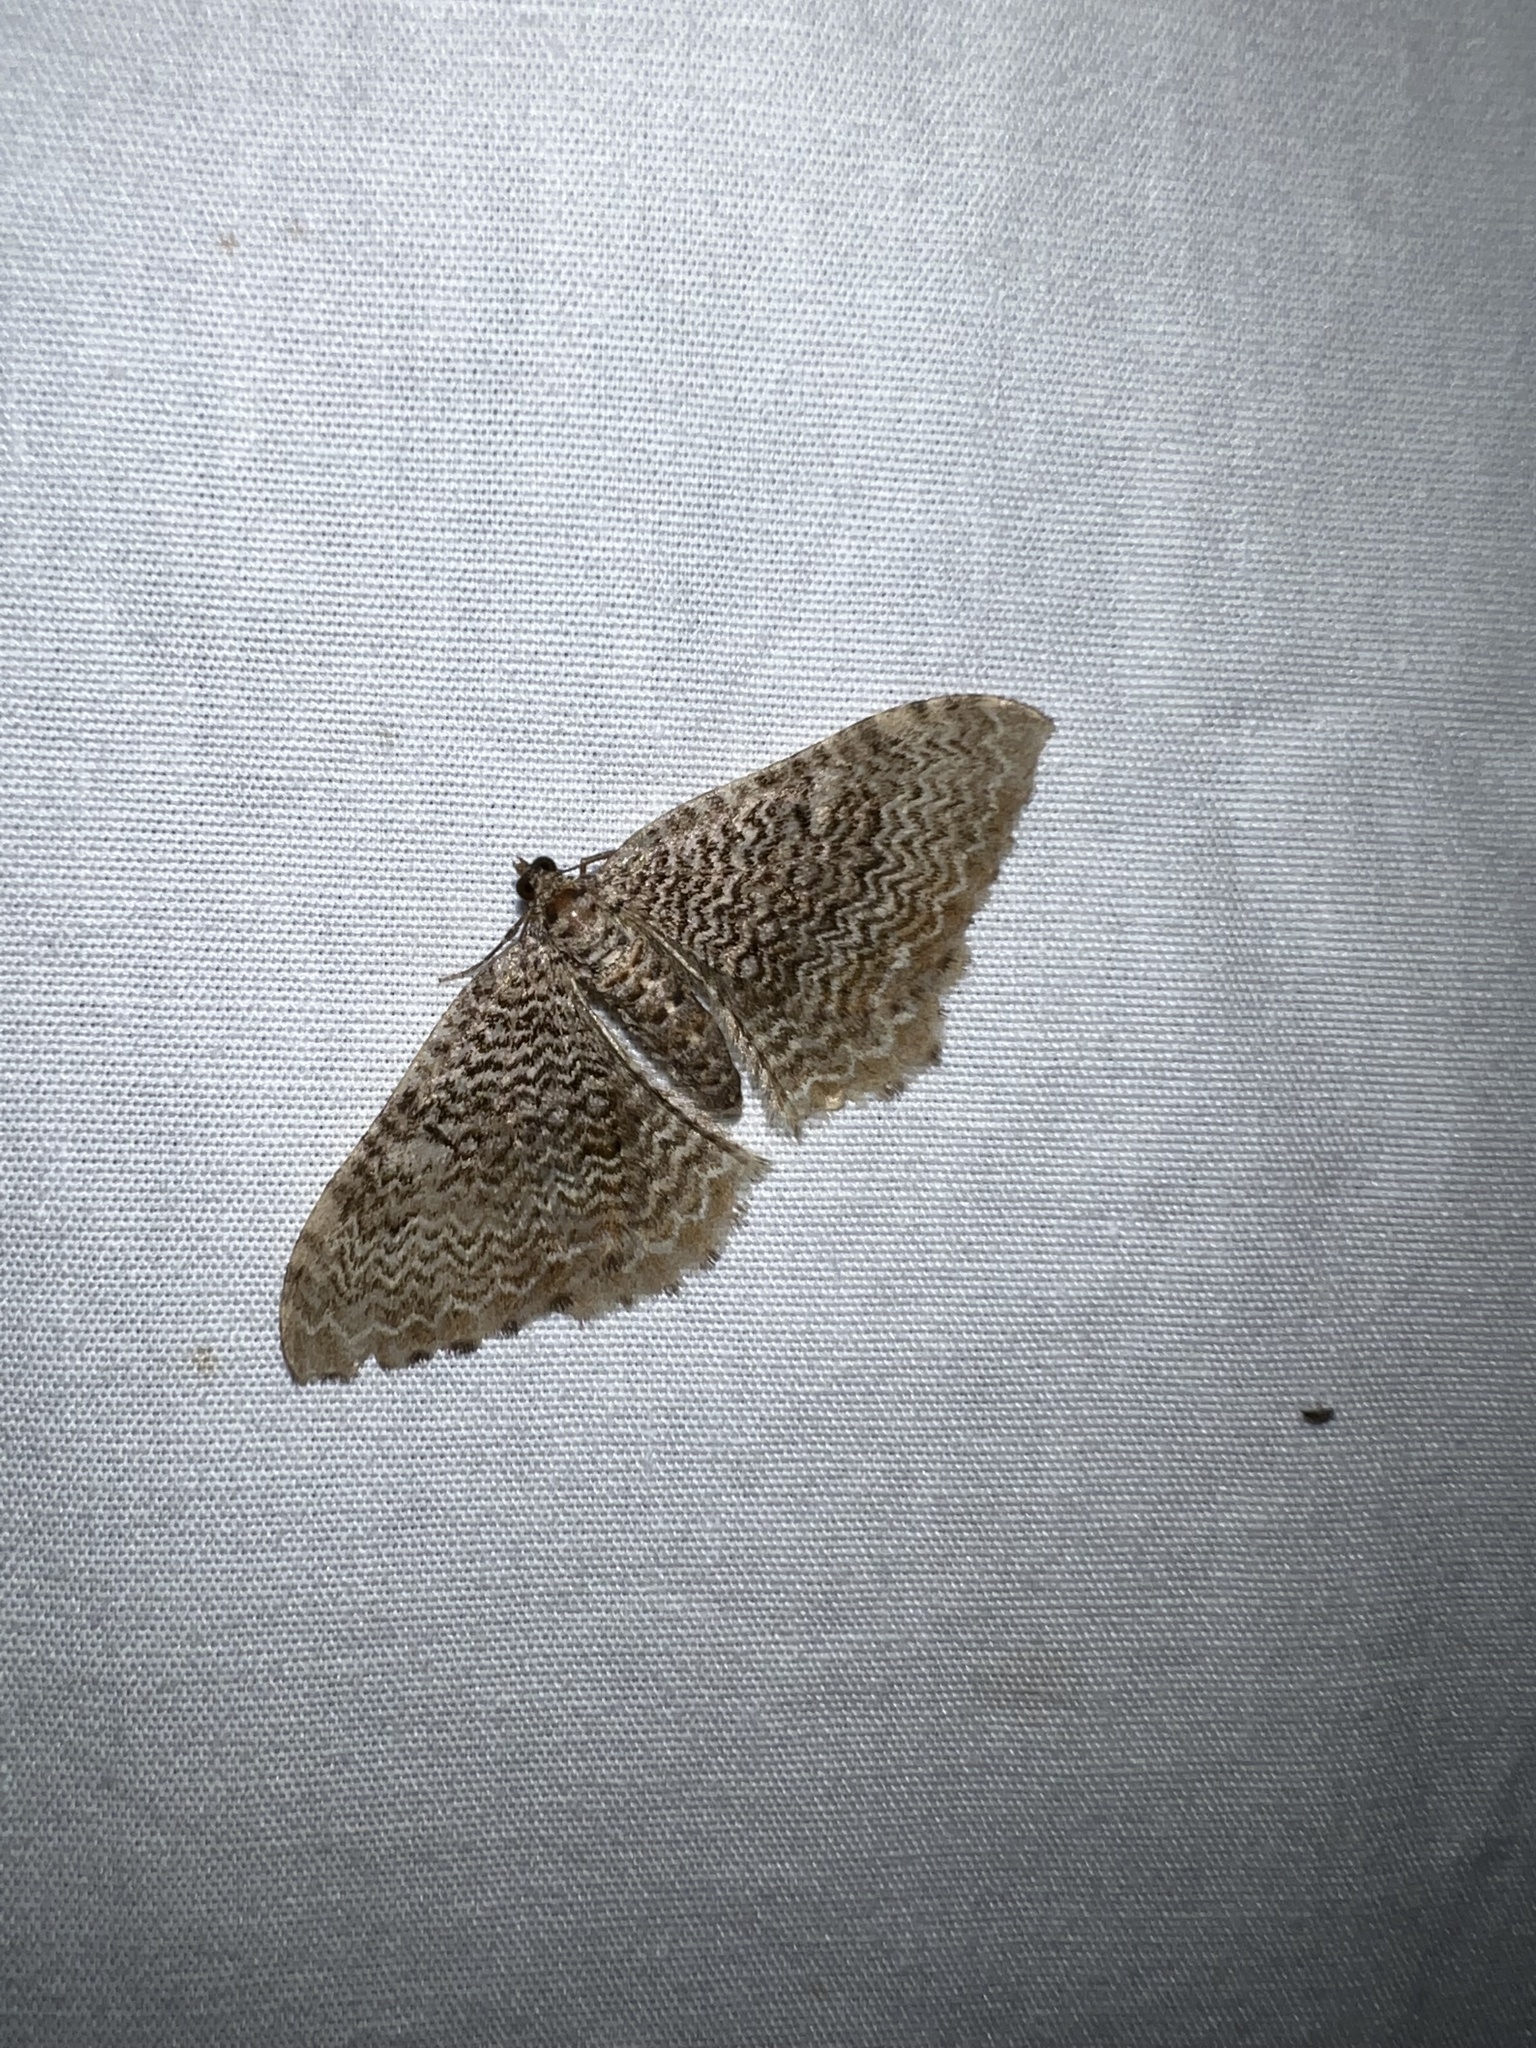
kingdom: Animalia
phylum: Arthropoda
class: Insecta
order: Lepidoptera
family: Geometridae
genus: Rheumaptera
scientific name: Rheumaptera
